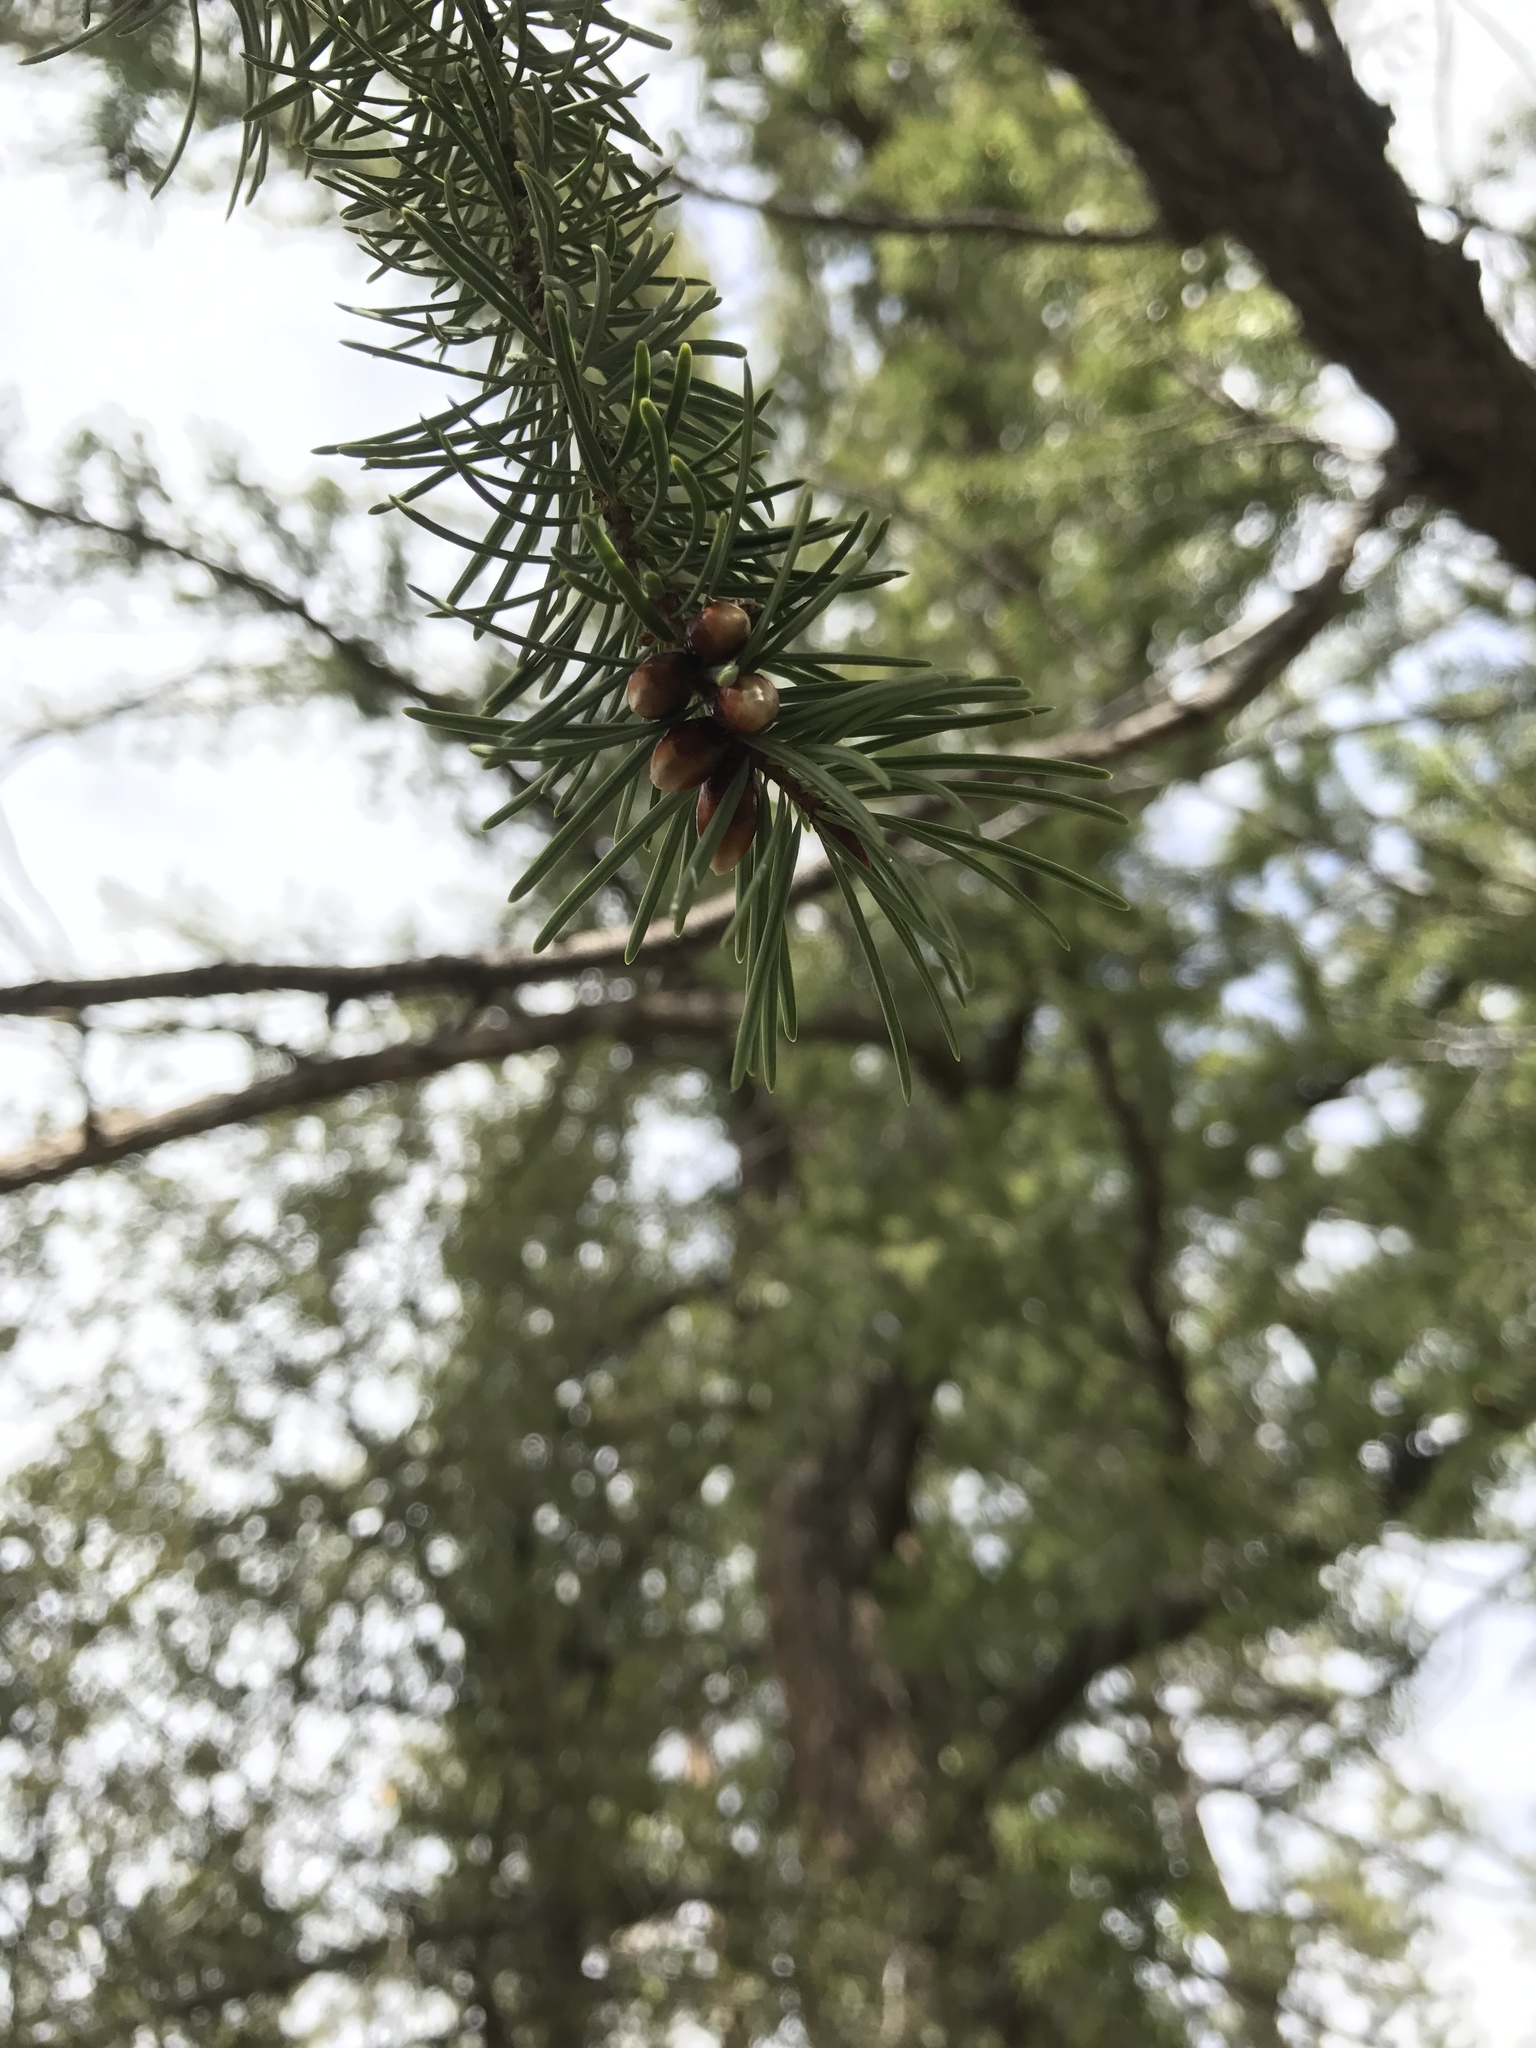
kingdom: Plantae
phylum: Tracheophyta
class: Pinopsida
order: Pinales
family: Pinaceae
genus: Pseudotsuga
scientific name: Pseudotsuga macrocarpa
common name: Big-cone douglas-fir
